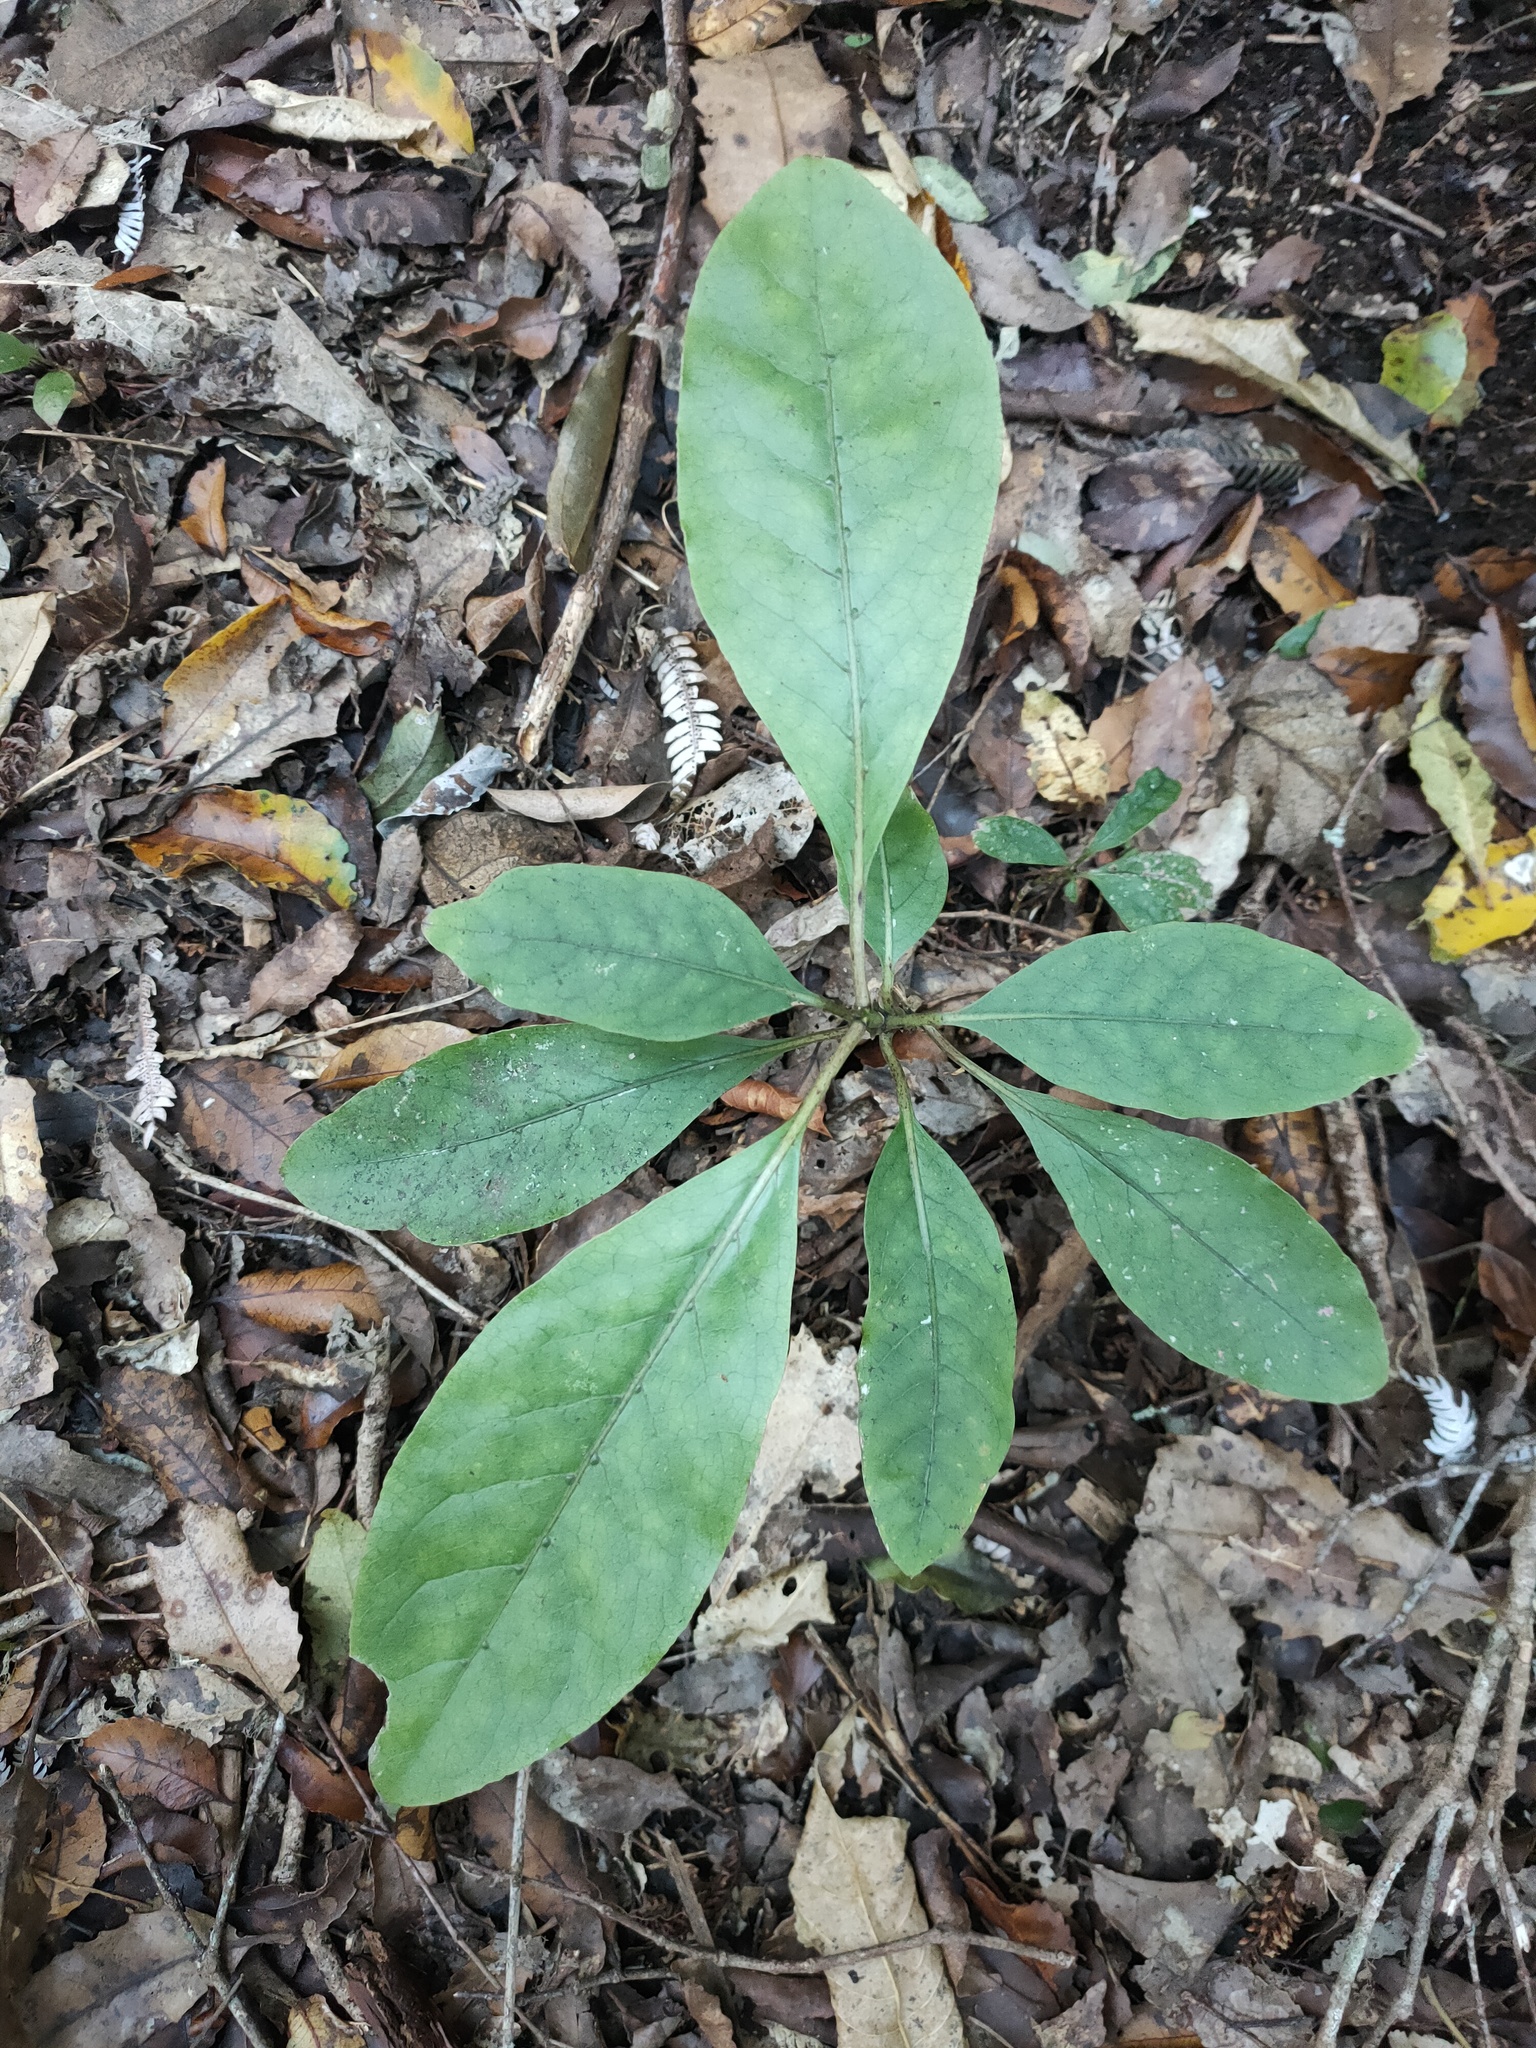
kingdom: Plantae
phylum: Tracheophyta
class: Magnoliopsida
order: Gentianales
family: Rubiaceae
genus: Coprosma
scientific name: Coprosma autumnalis
